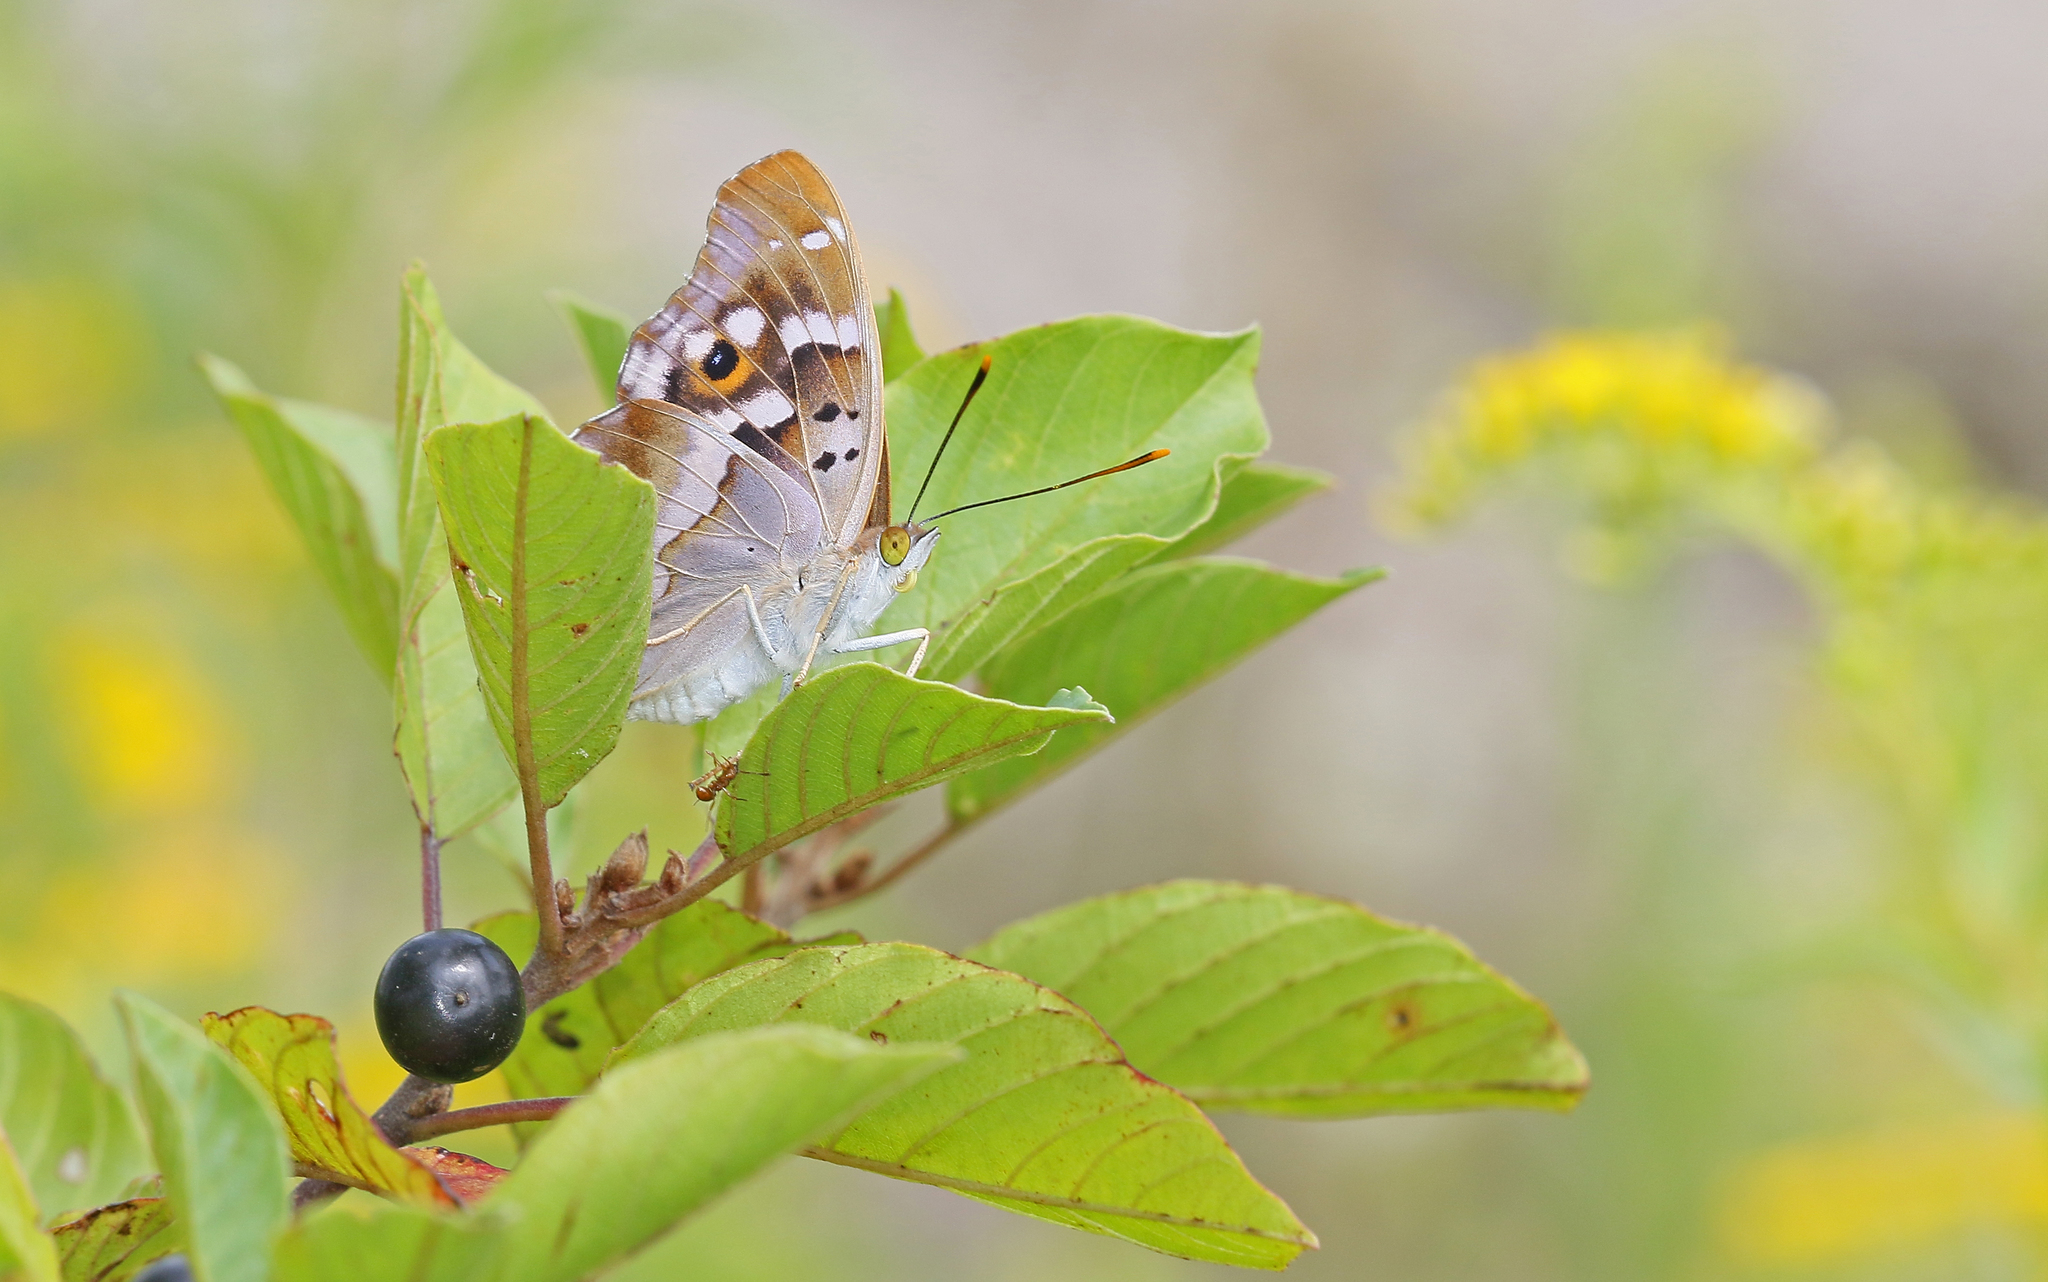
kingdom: Animalia
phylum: Arthropoda
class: Insecta
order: Lepidoptera
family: Nymphalidae
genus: Apatura
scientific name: Apatura ilia
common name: Lesser purple emperor
